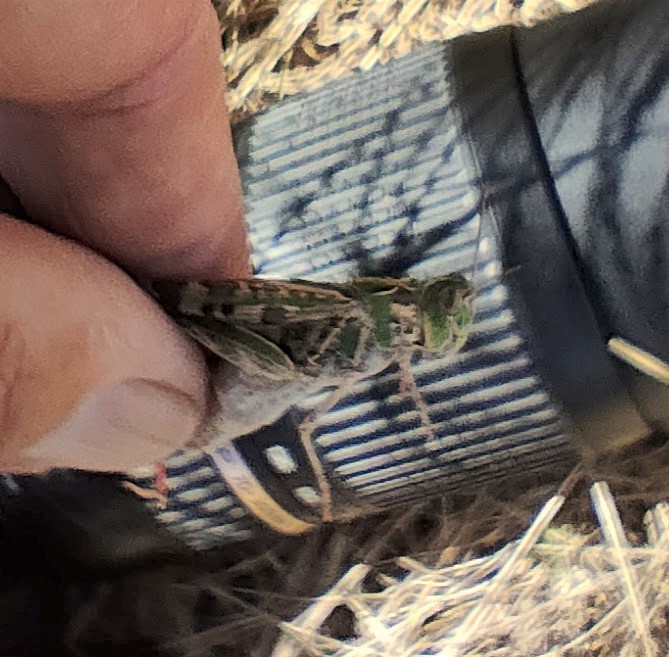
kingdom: Animalia
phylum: Arthropoda
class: Insecta
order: Orthoptera
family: Acrididae
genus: Chortoicetes
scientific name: Chortoicetes terminifera
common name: Australian plague locust
